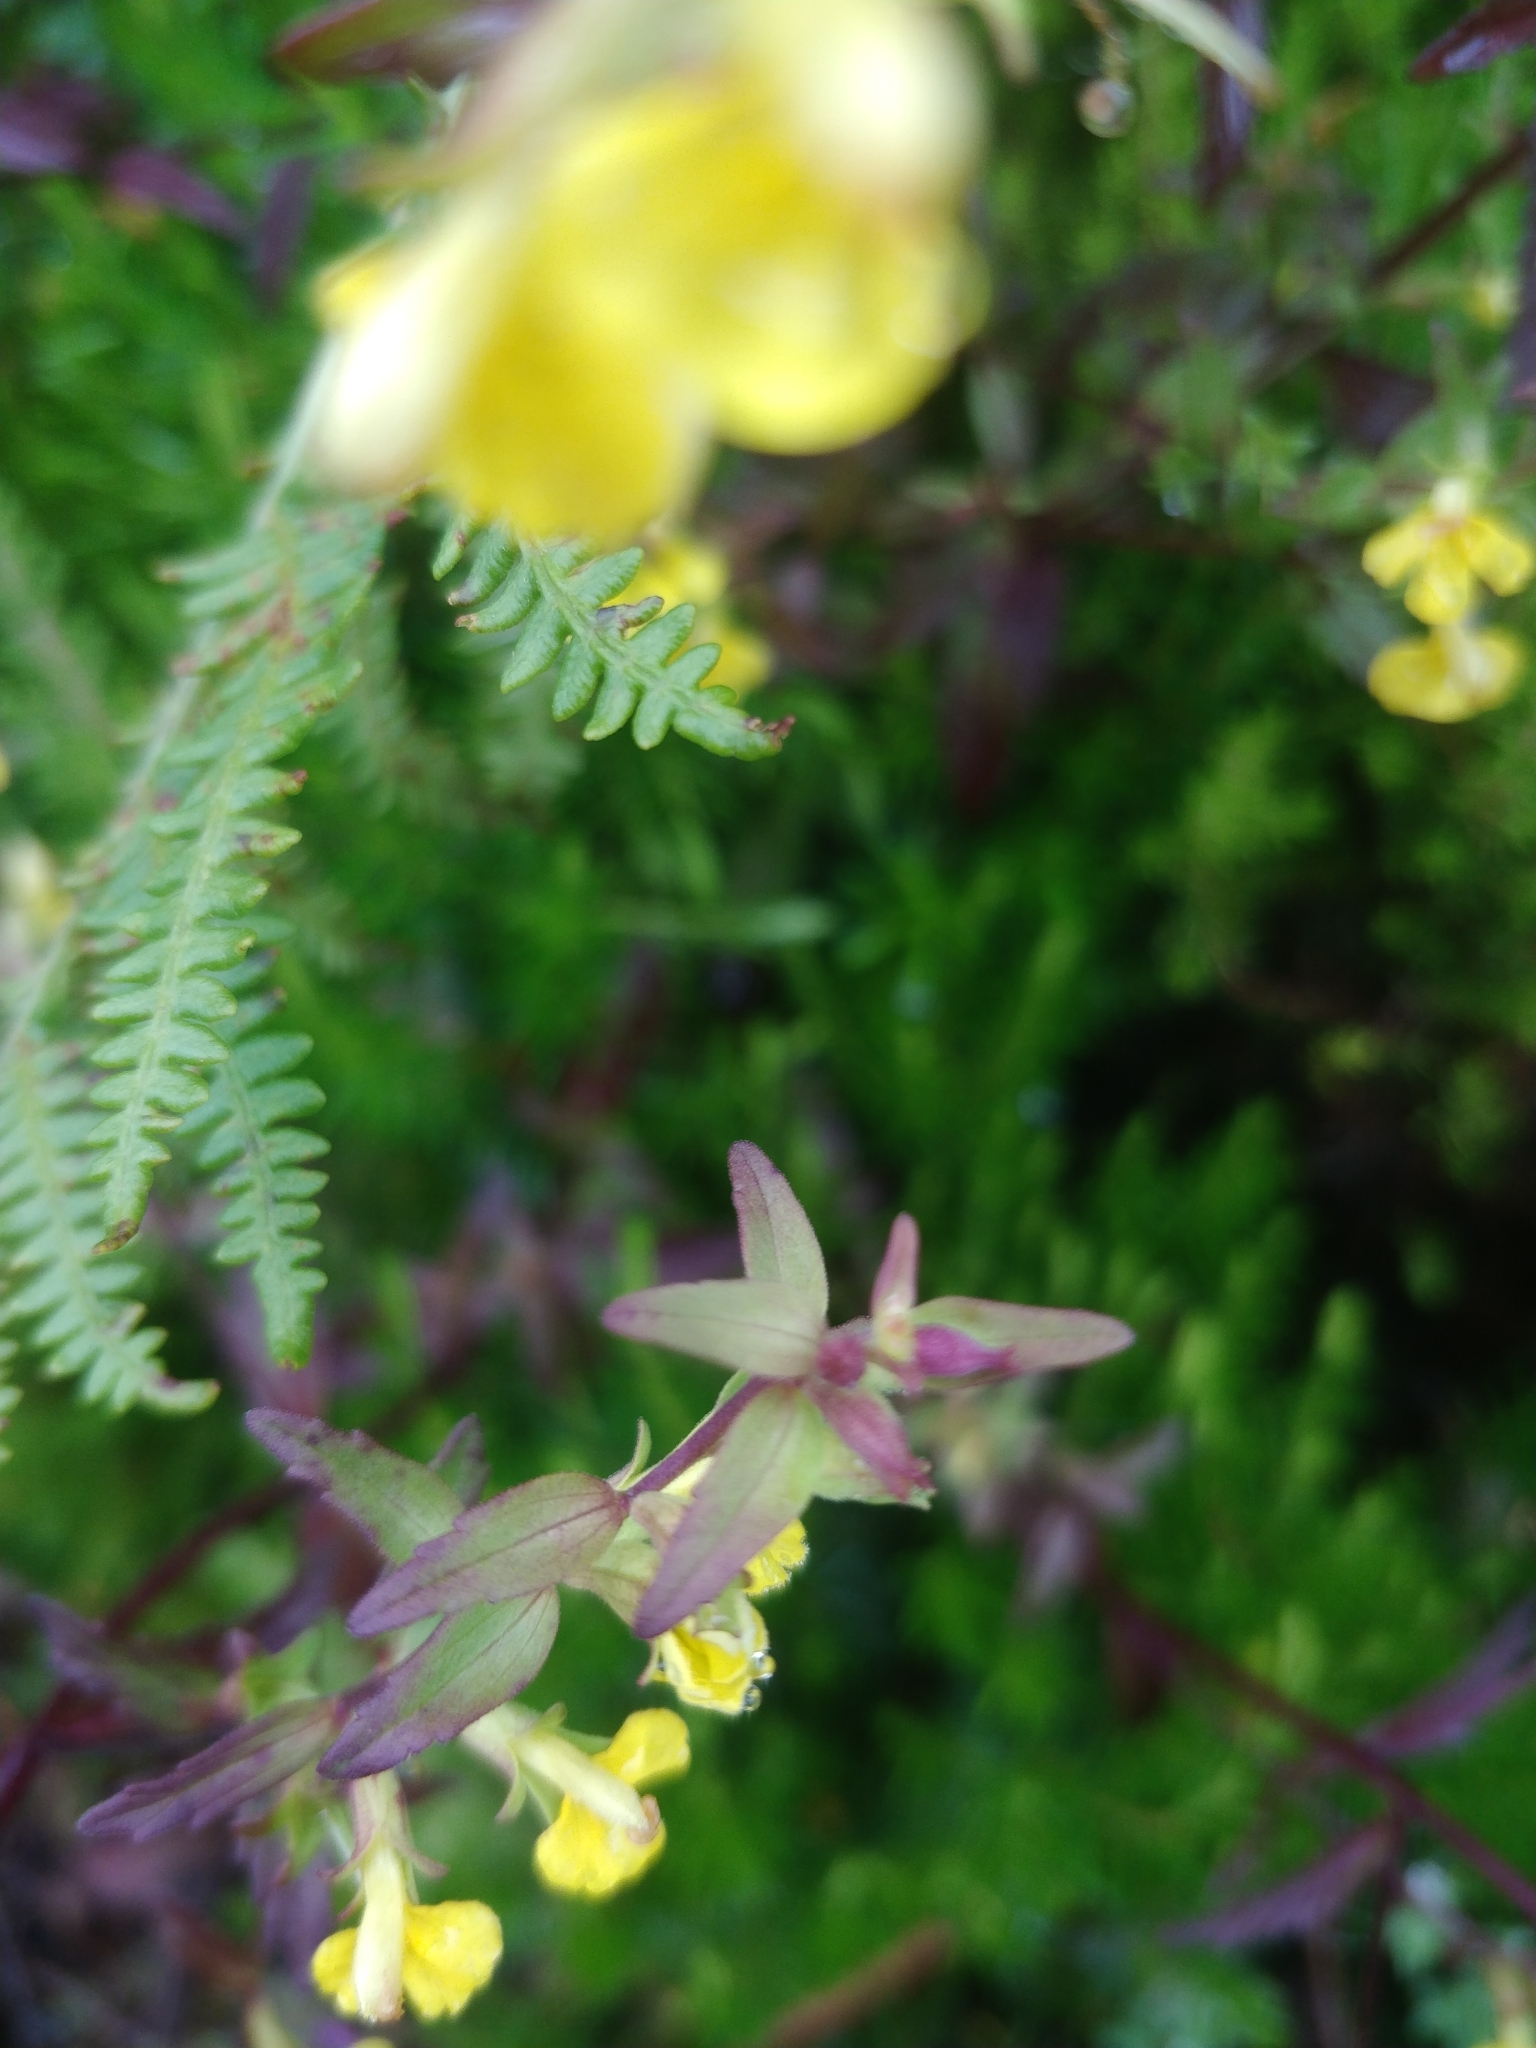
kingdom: Plantae
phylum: Tracheophyta
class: Magnoliopsida
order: Lamiales
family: Orobanchaceae
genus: Odontites
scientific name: Odontites hollianus
